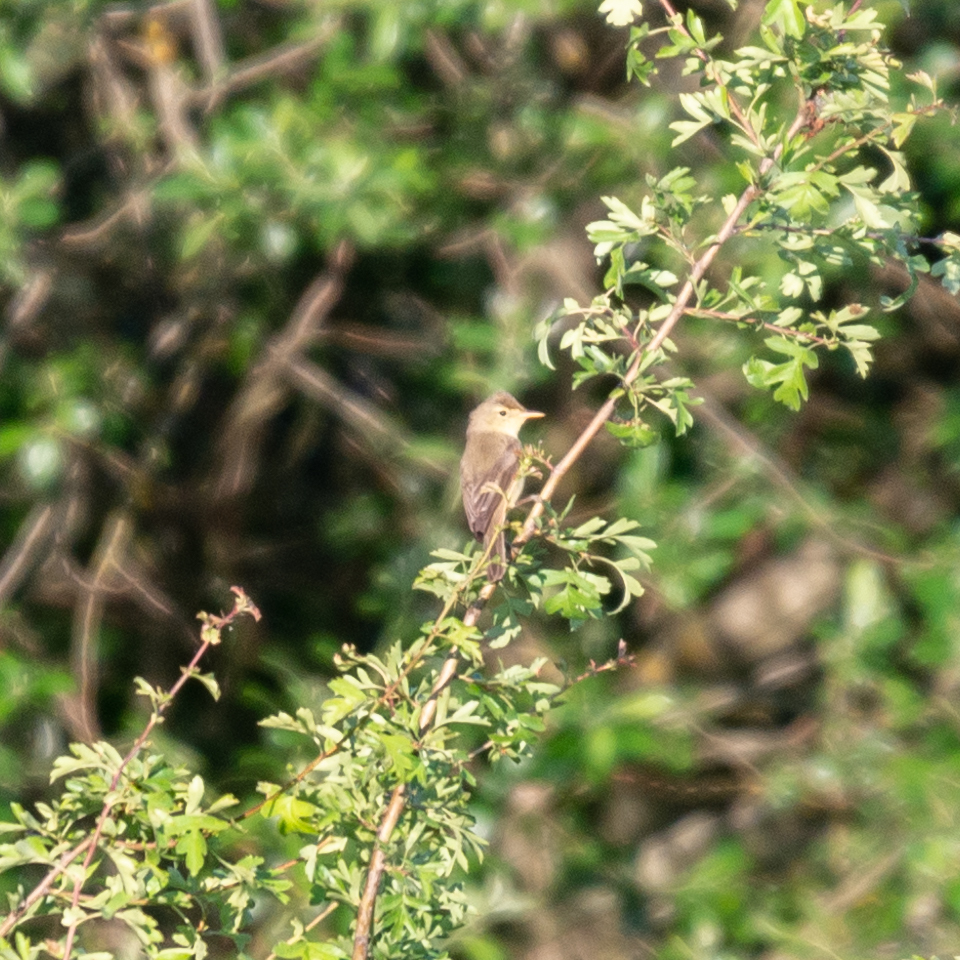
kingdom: Animalia
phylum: Chordata
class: Aves
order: Passeriformes
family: Acrocephalidae
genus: Hippolais
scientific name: Hippolais polyglotta
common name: Melodious warbler
